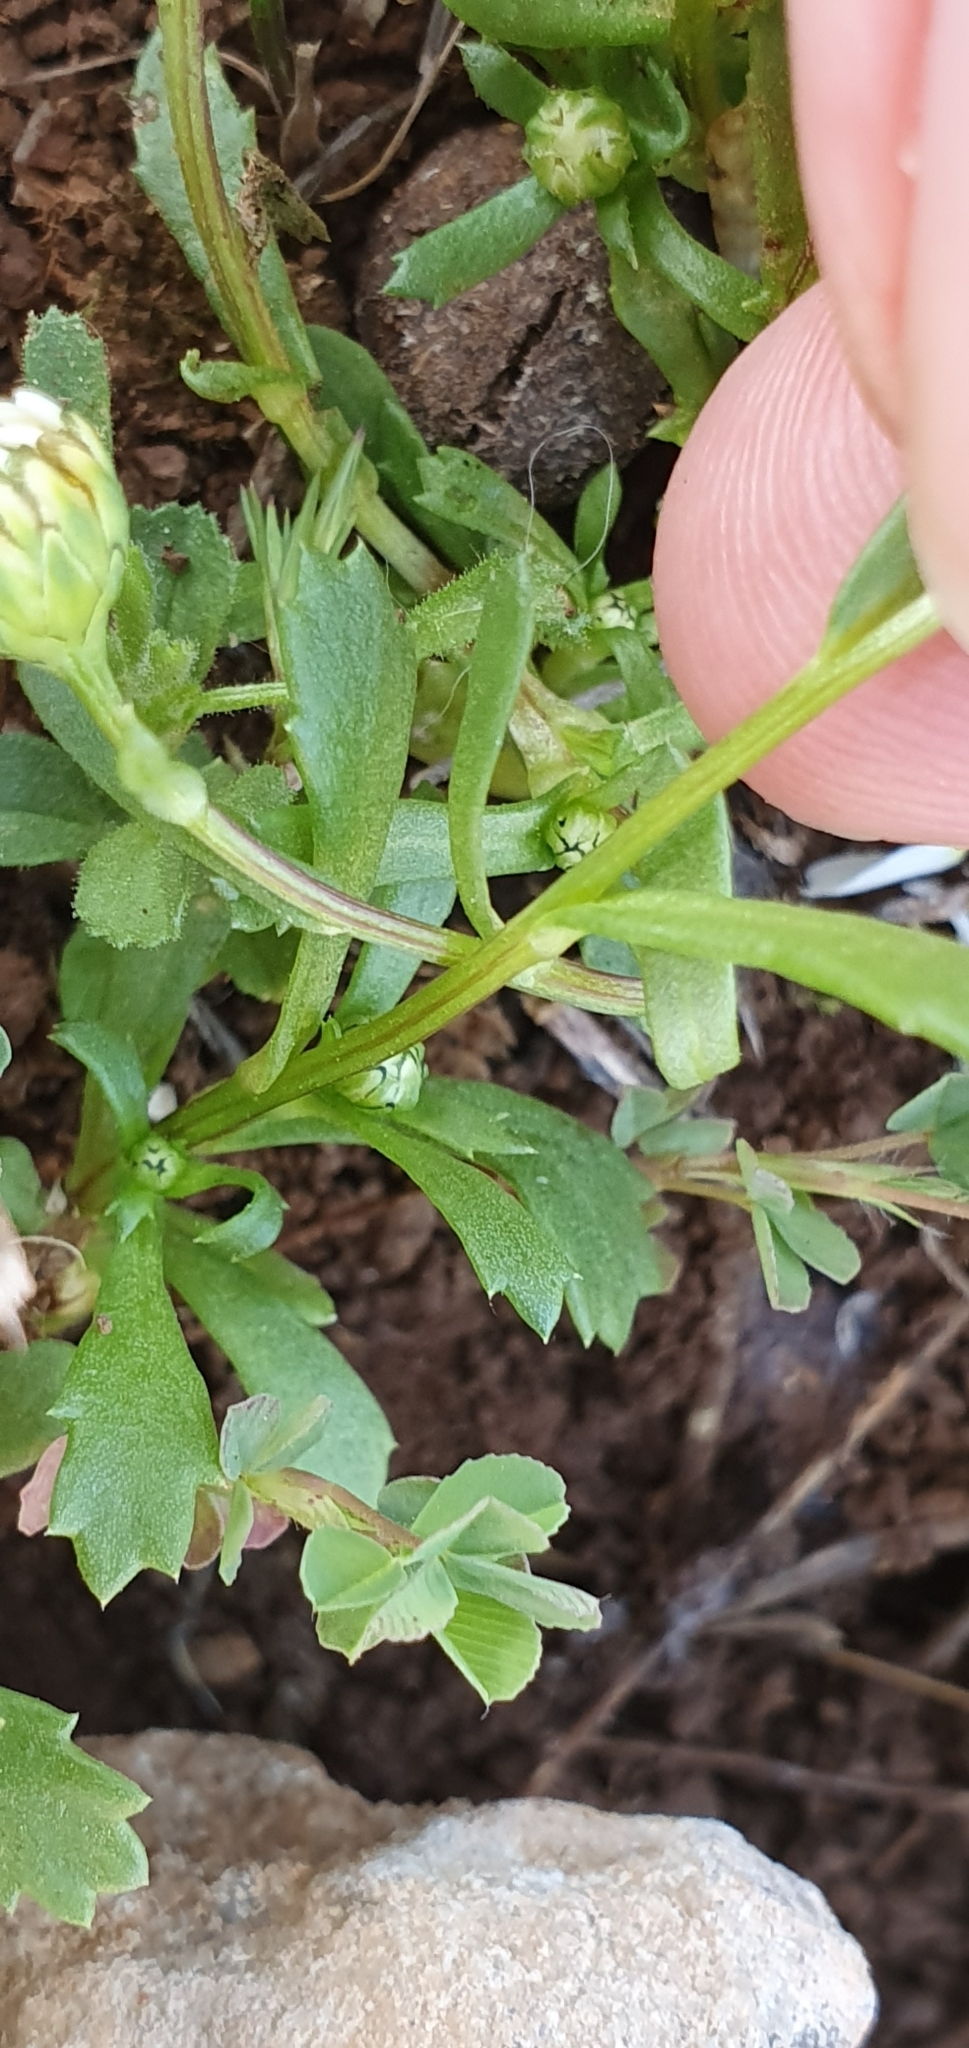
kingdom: Plantae
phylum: Tracheophyta
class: Magnoliopsida
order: Asterales
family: Asteraceae
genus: Mauranthemum
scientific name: Mauranthemum paludosum
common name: Sunflower
